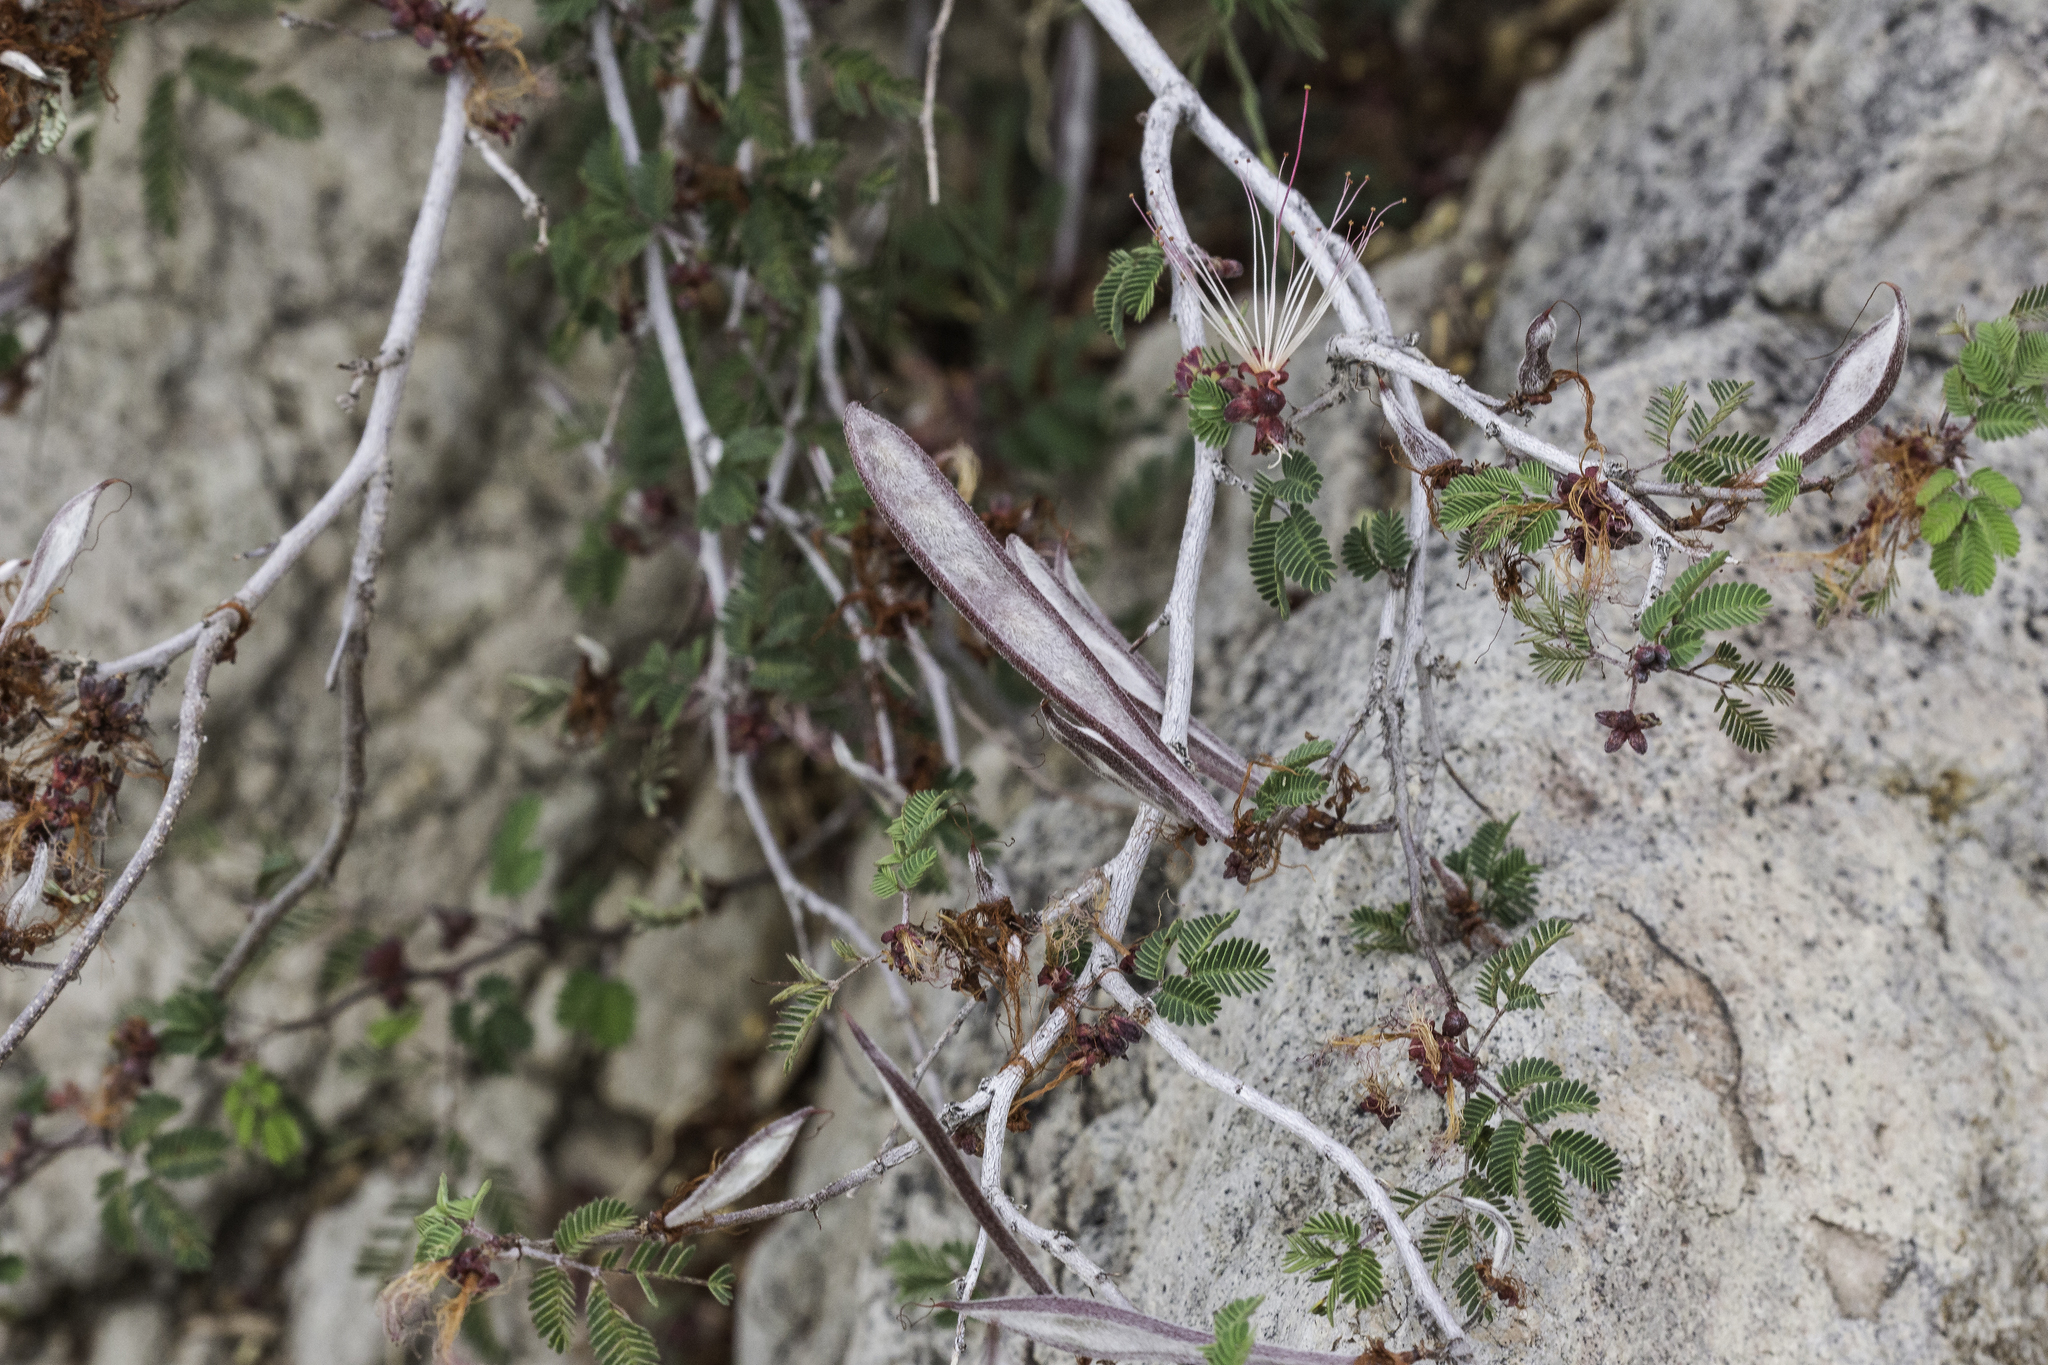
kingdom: Plantae
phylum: Tracheophyta
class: Magnoliopsida
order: Fabales
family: Fabaceae
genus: Calliandra
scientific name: Calliandra eriophylla
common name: Fairy-duster
